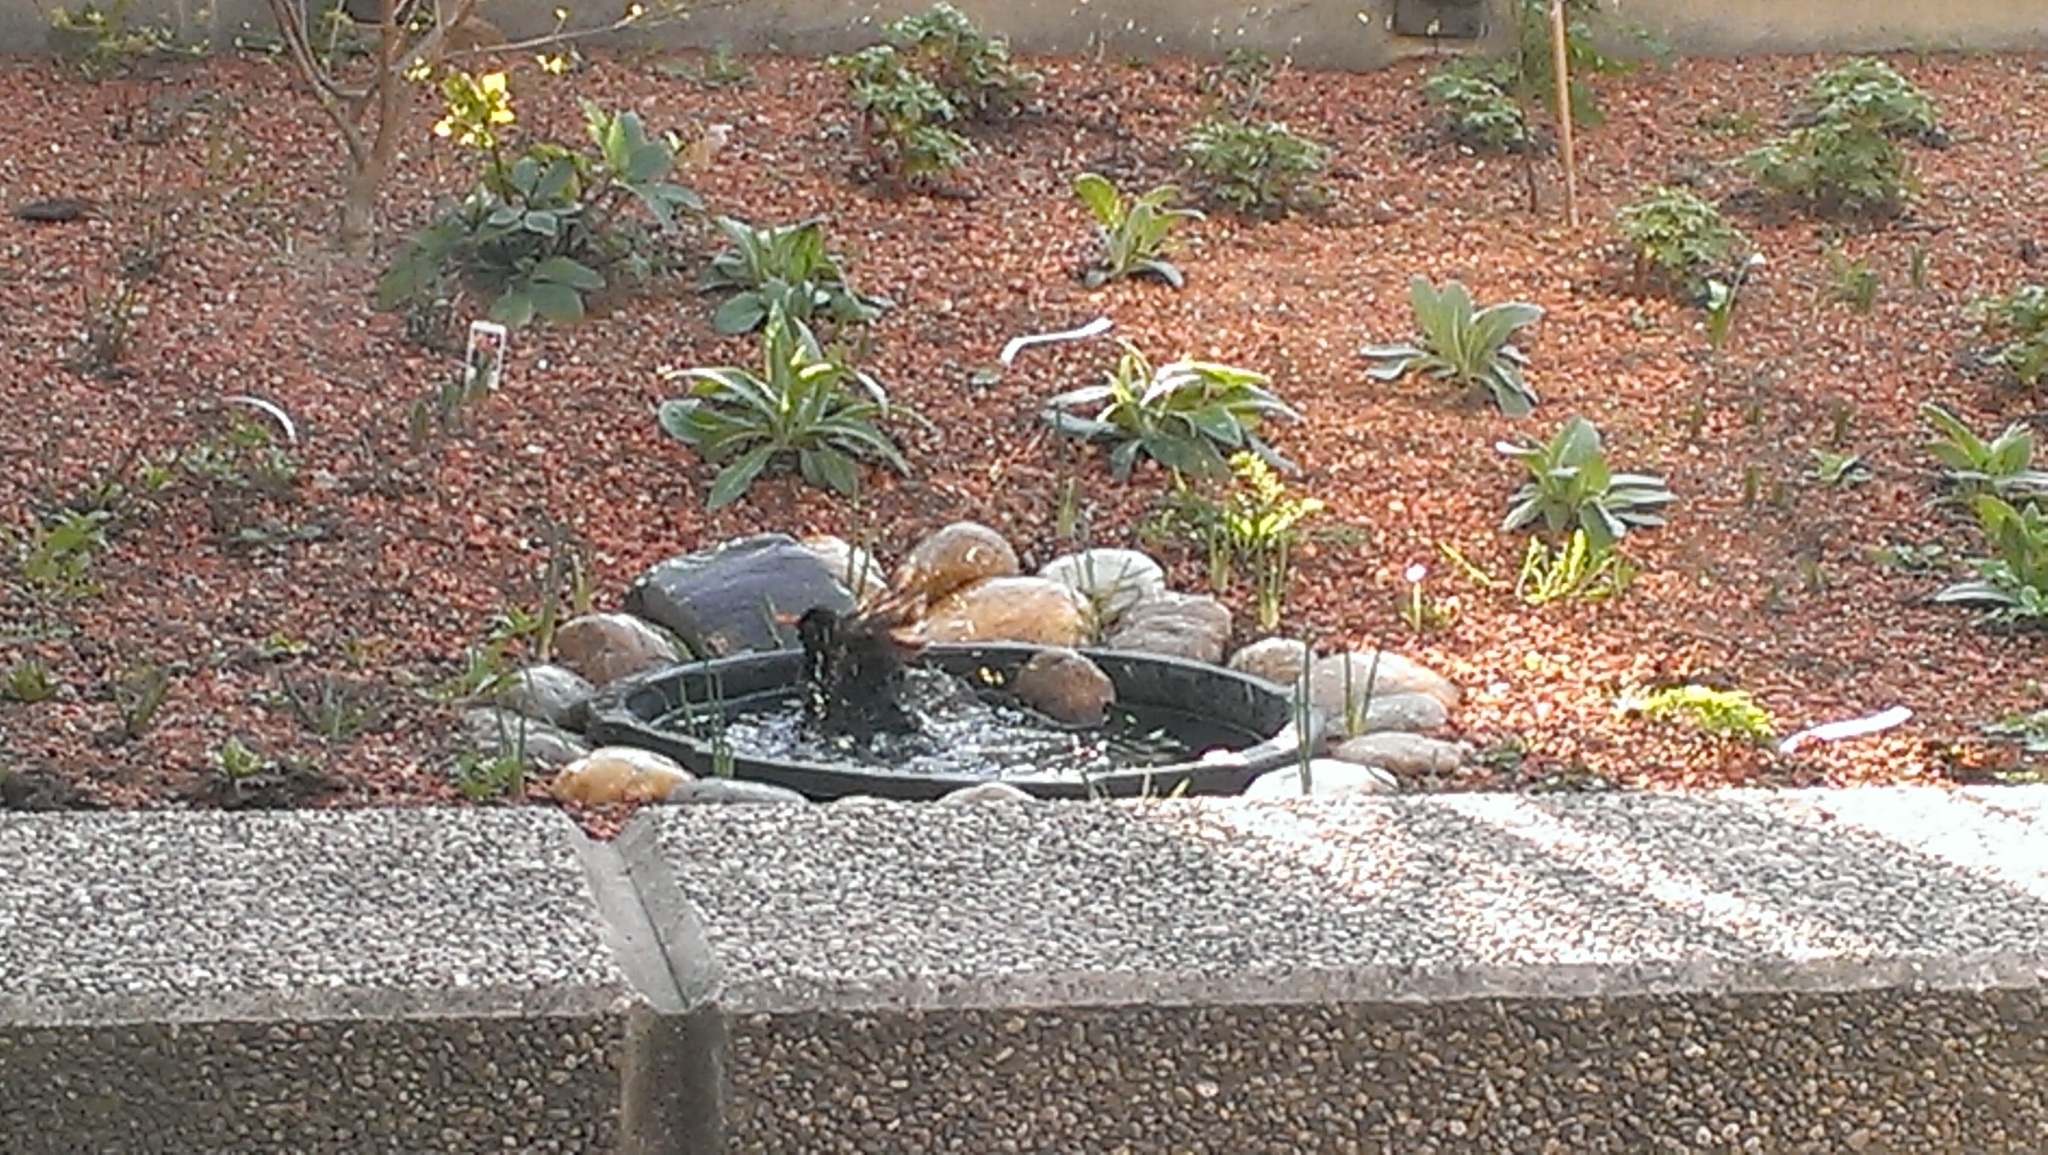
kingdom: Animalia
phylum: Chordata
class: Aves
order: Passeriformes
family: Turdidae
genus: Turdus
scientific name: Turdus merula
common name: Common blackbird
